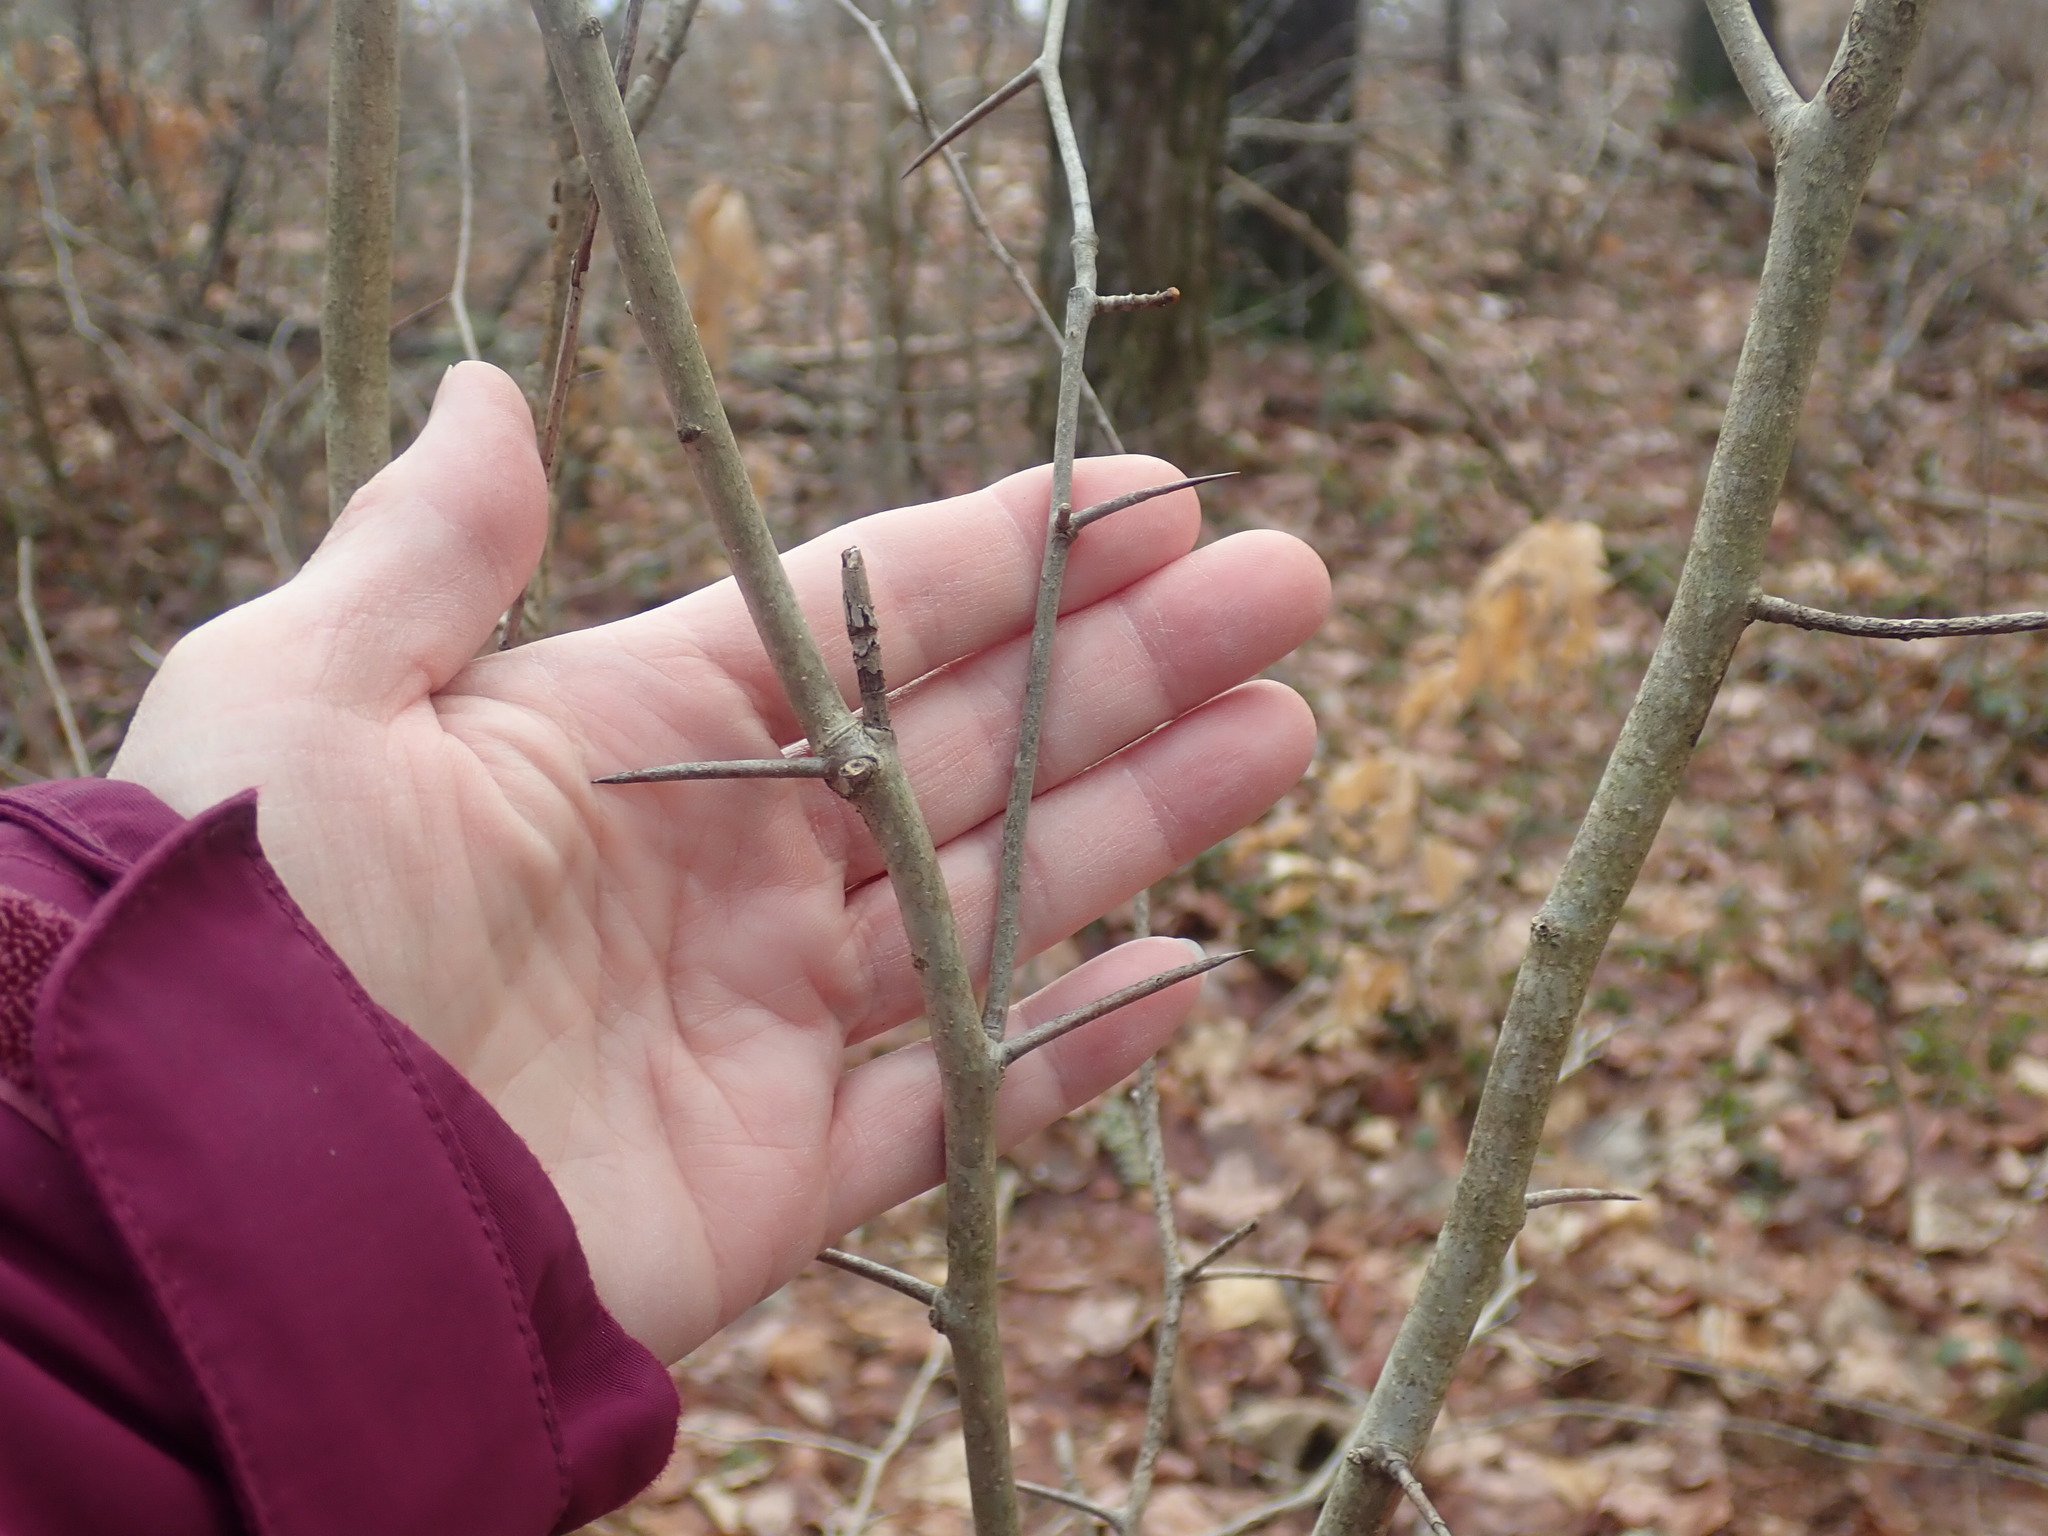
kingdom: Plantae
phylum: Tracheophyta
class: Magnoliopsida
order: Rosales
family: Rosaceae
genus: Crataegus
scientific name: Crataegus
